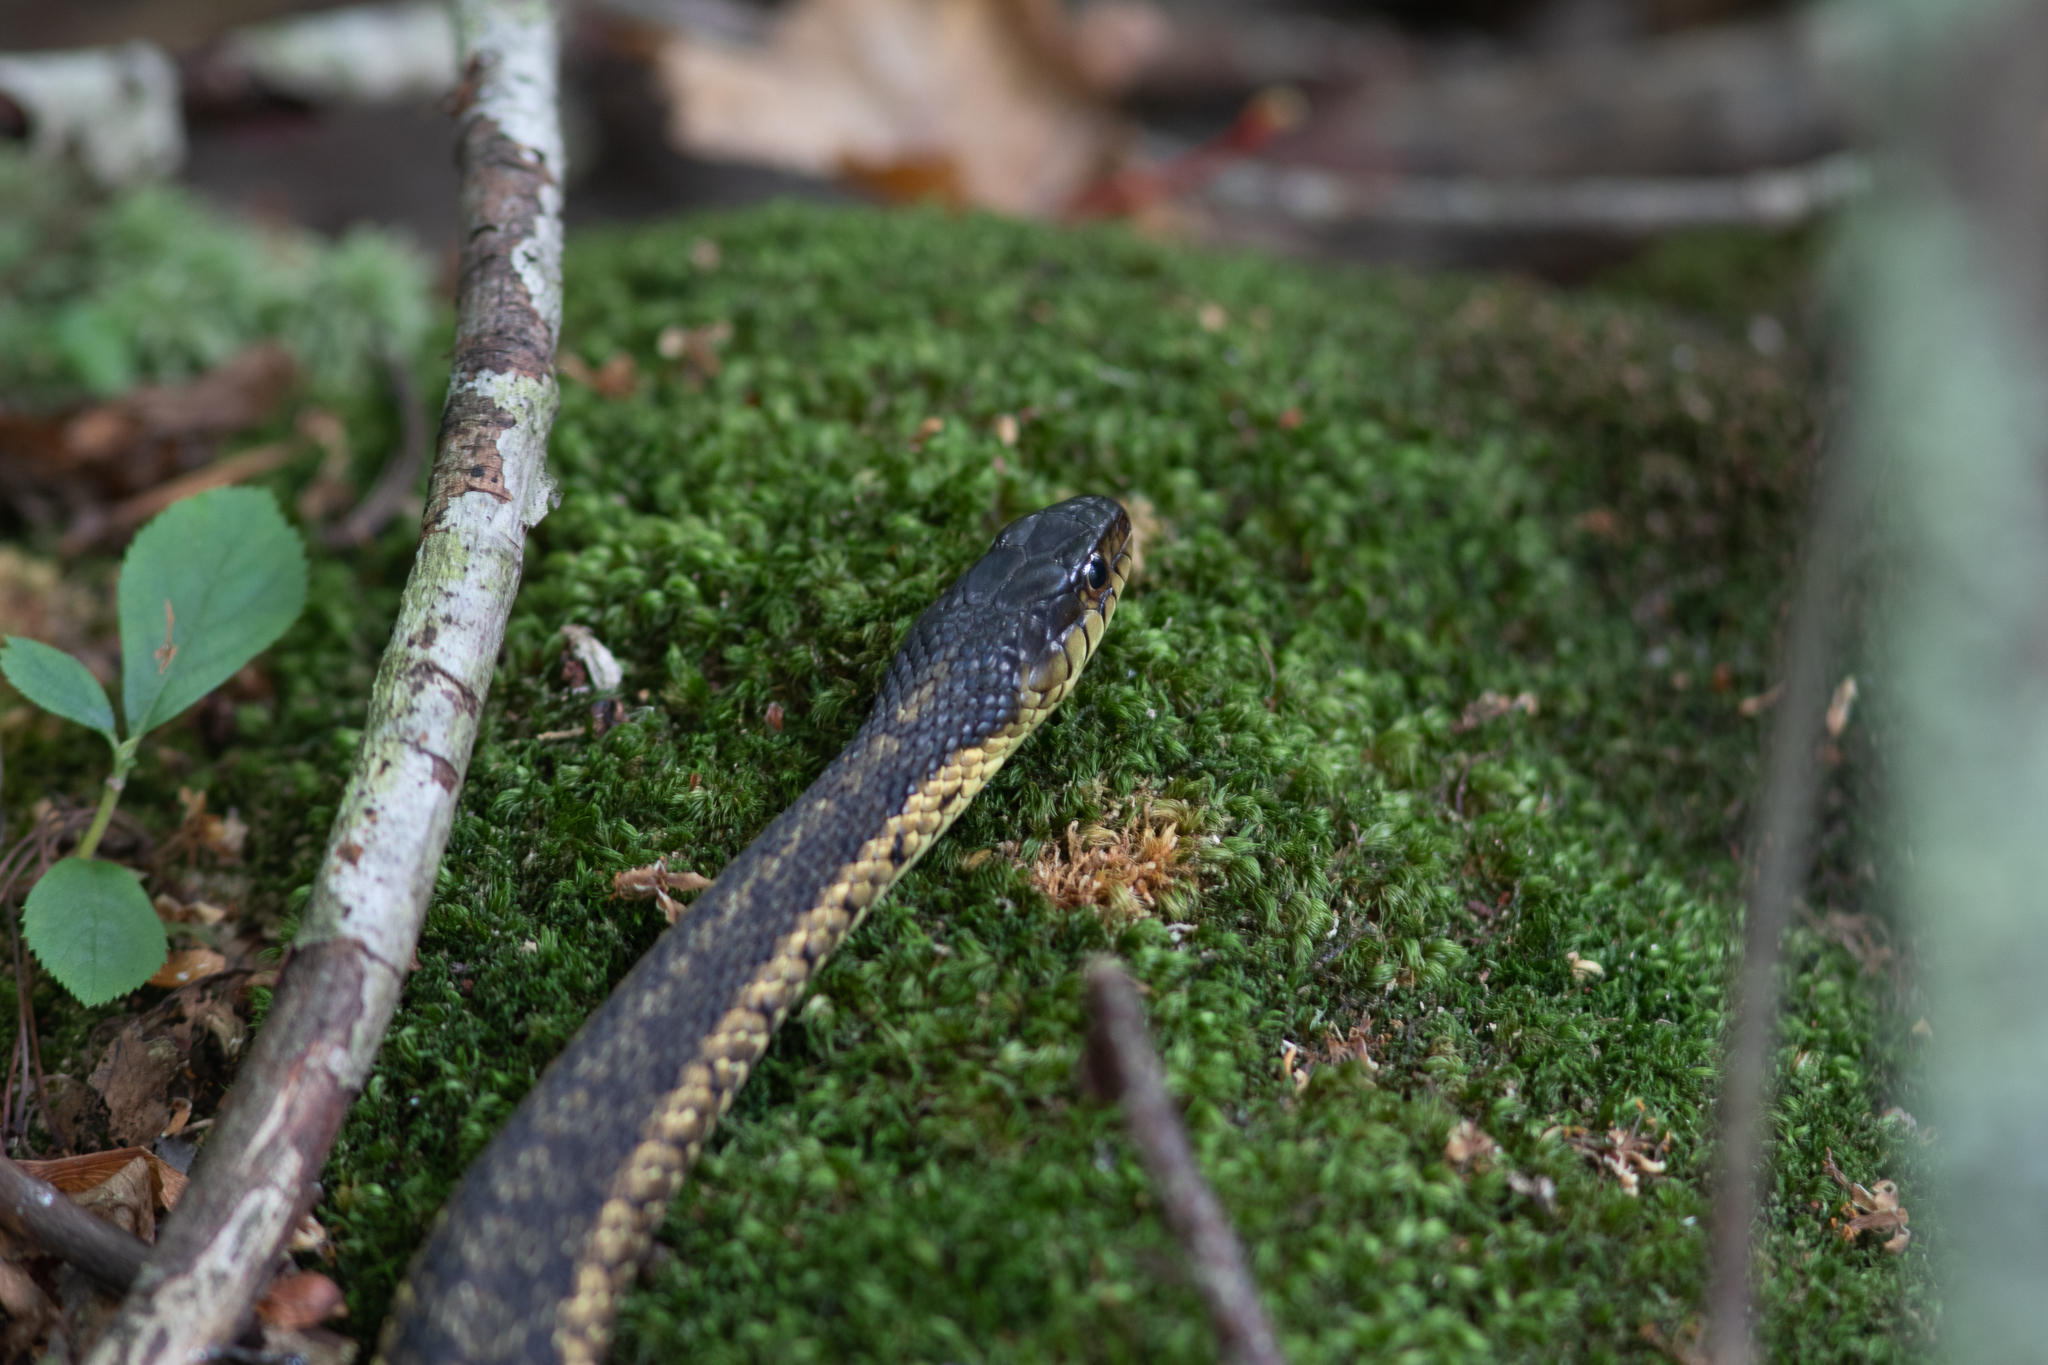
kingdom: Animalia
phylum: Chordata
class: Squamata
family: Colubridae
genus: Thamnophis
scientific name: Thamnophis sirtalis
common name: Common garter snake
